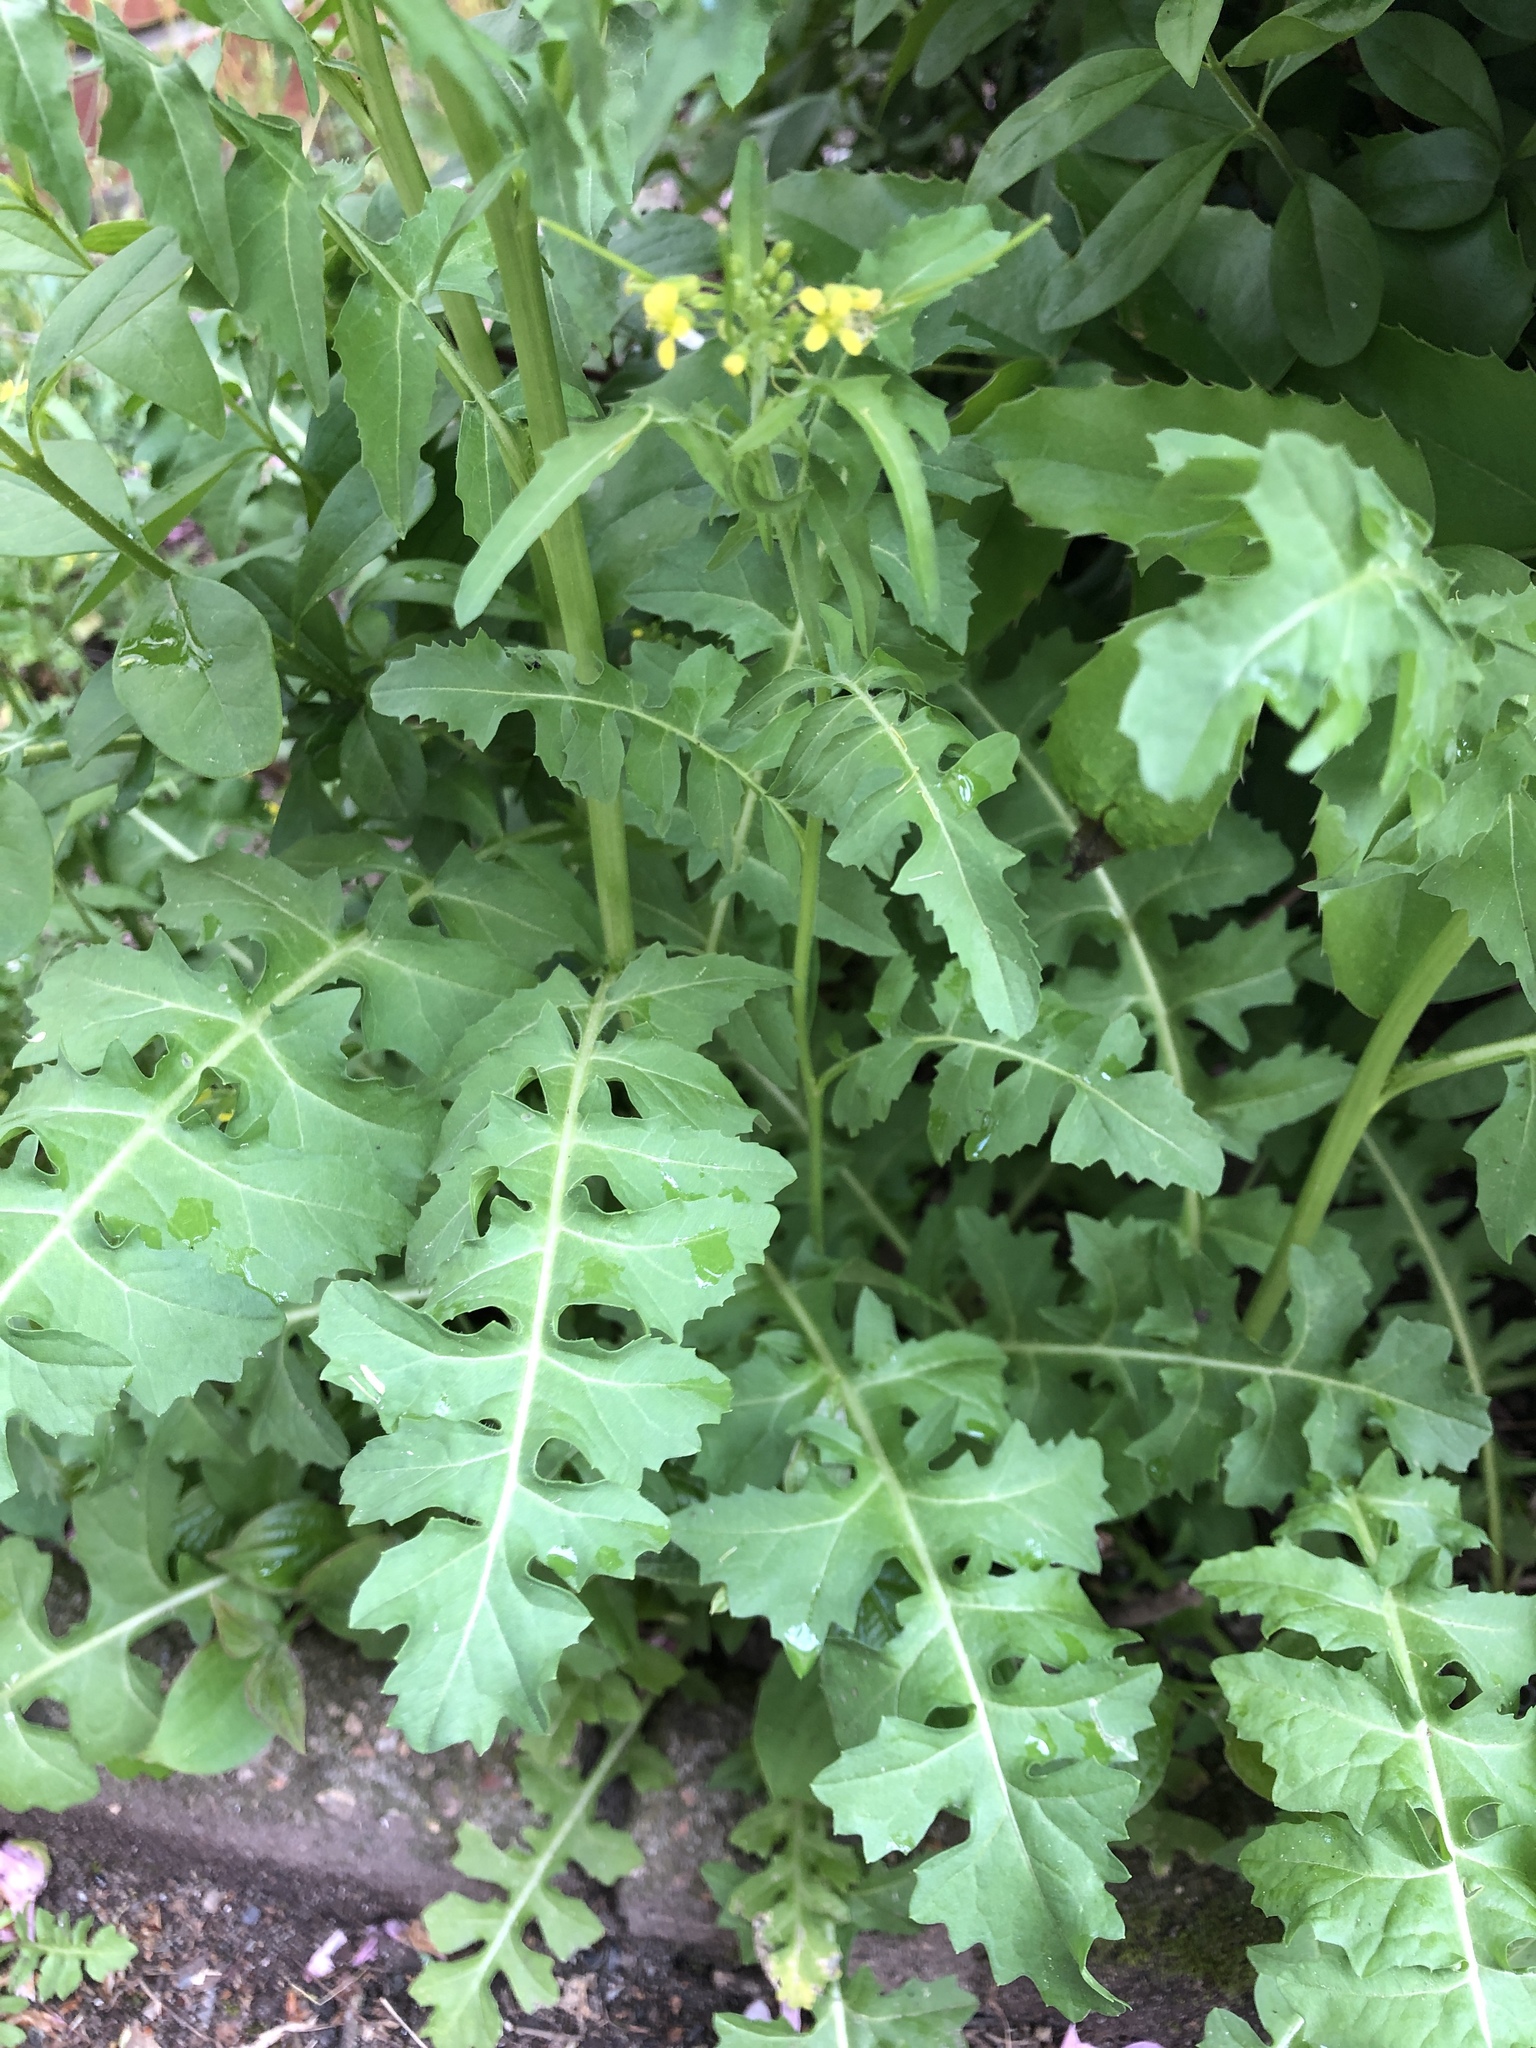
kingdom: Plantae
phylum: Tracheophyta
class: Magnoliopsida
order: Brassicales
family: Brassicaceae
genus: Sisymbrium
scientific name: Sisymbrium irio
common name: London rocket
